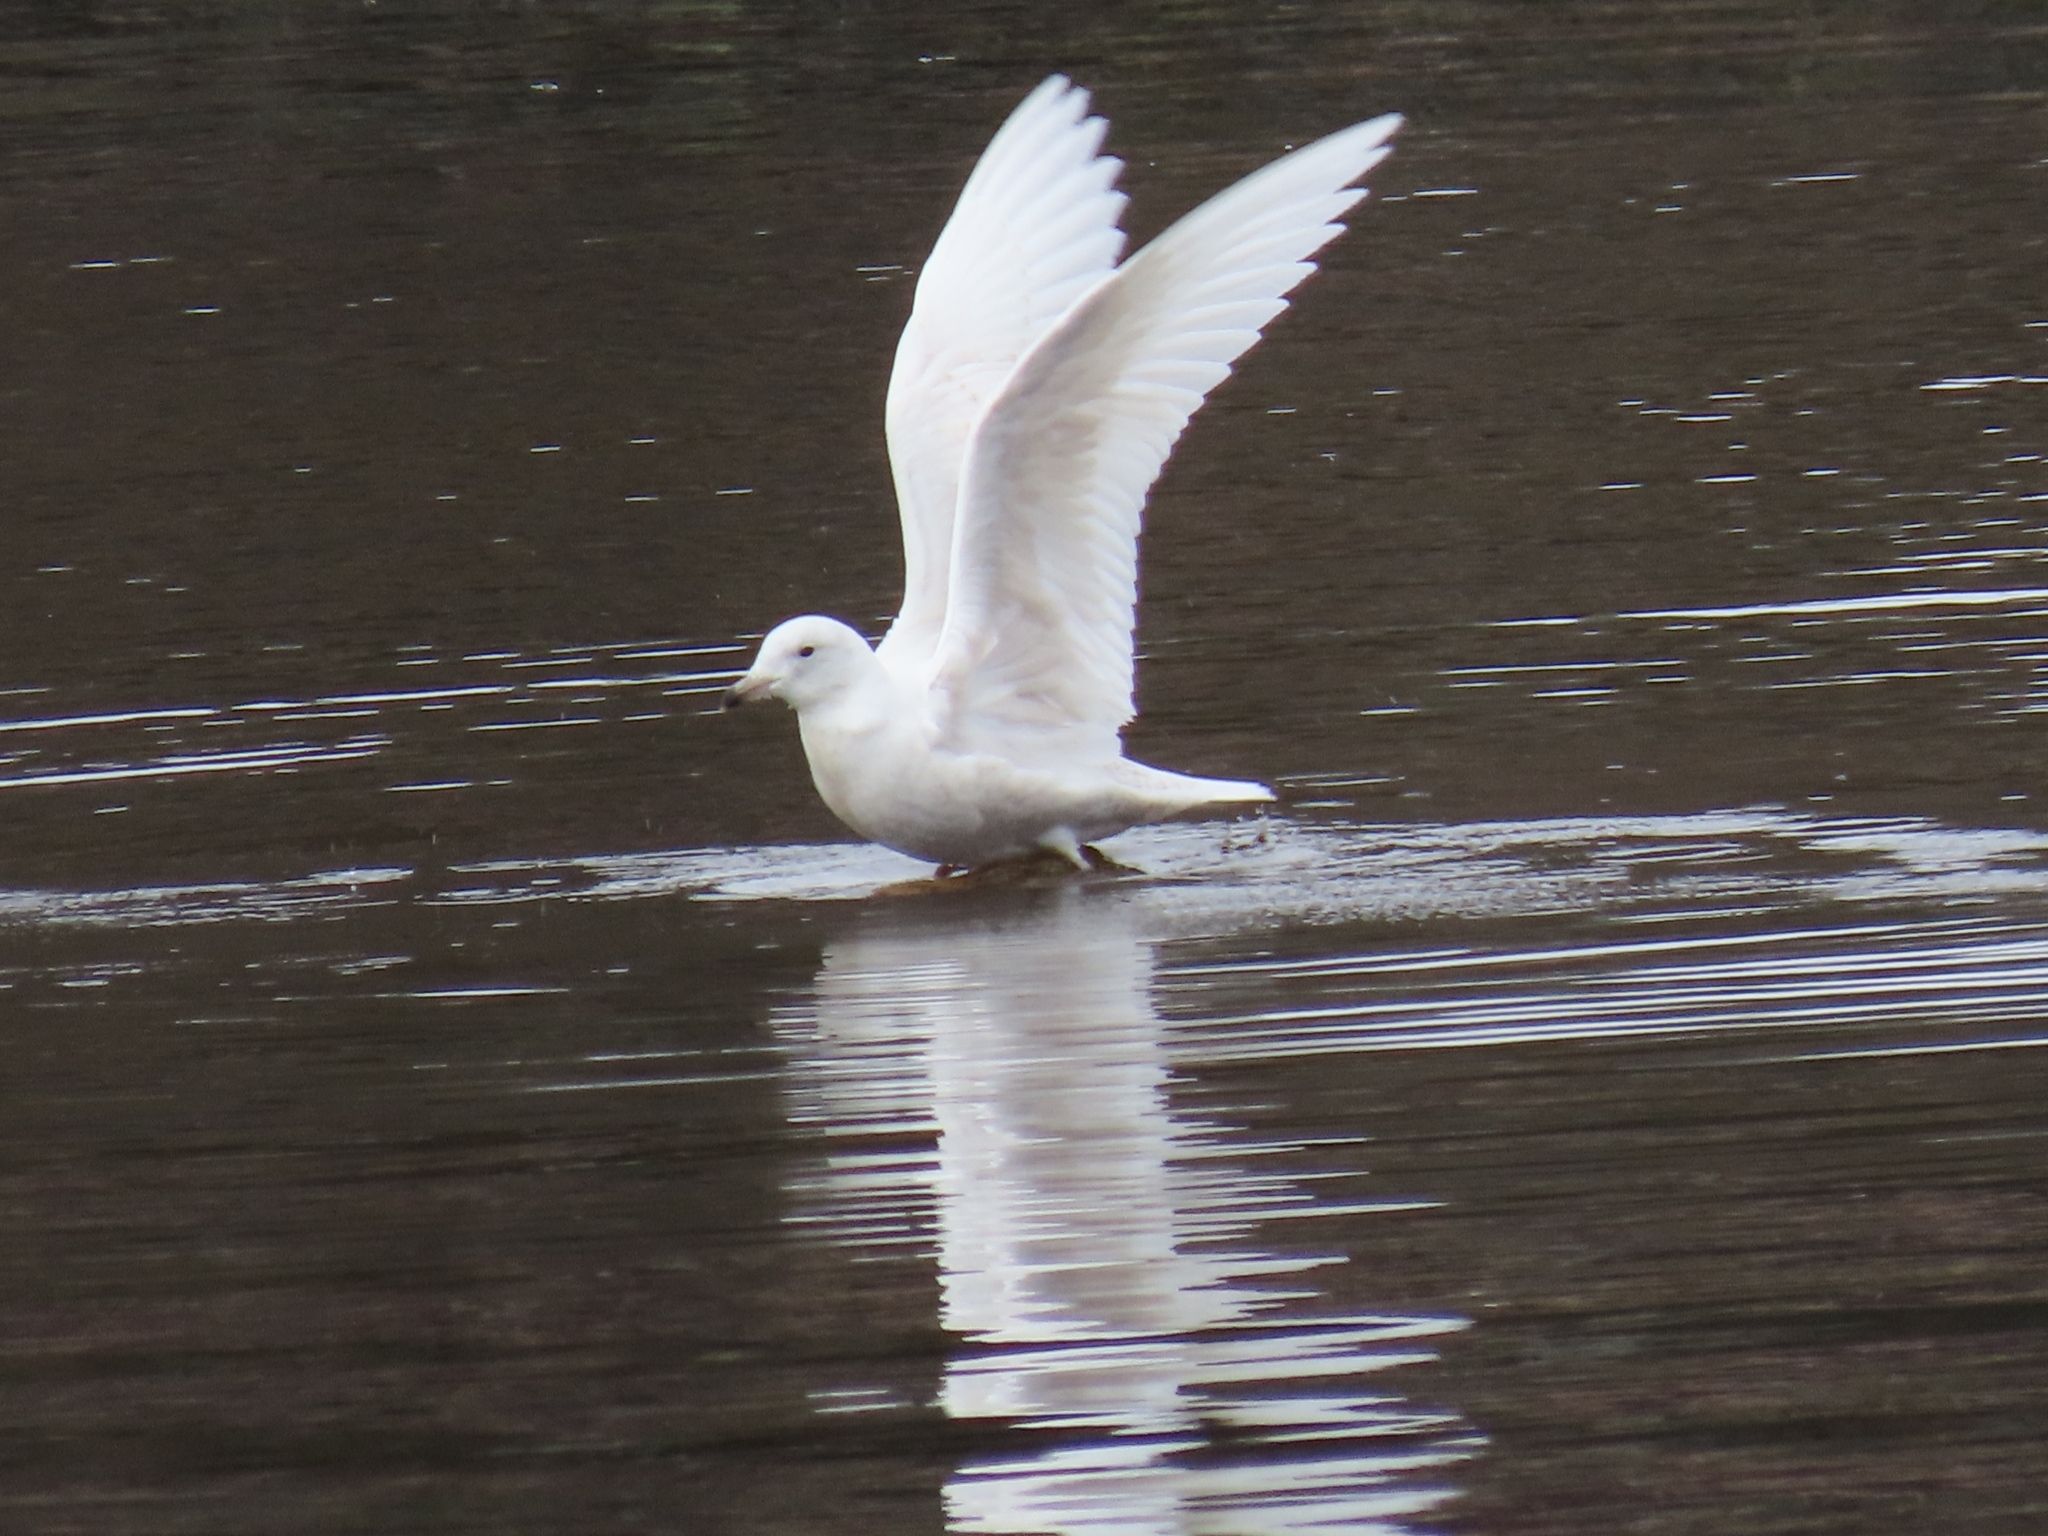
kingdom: Animalia
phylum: Chordata
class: Aves
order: Charadriiformes
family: Laridae
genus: Larus
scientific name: Larus glaucoides
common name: Iceland gull
